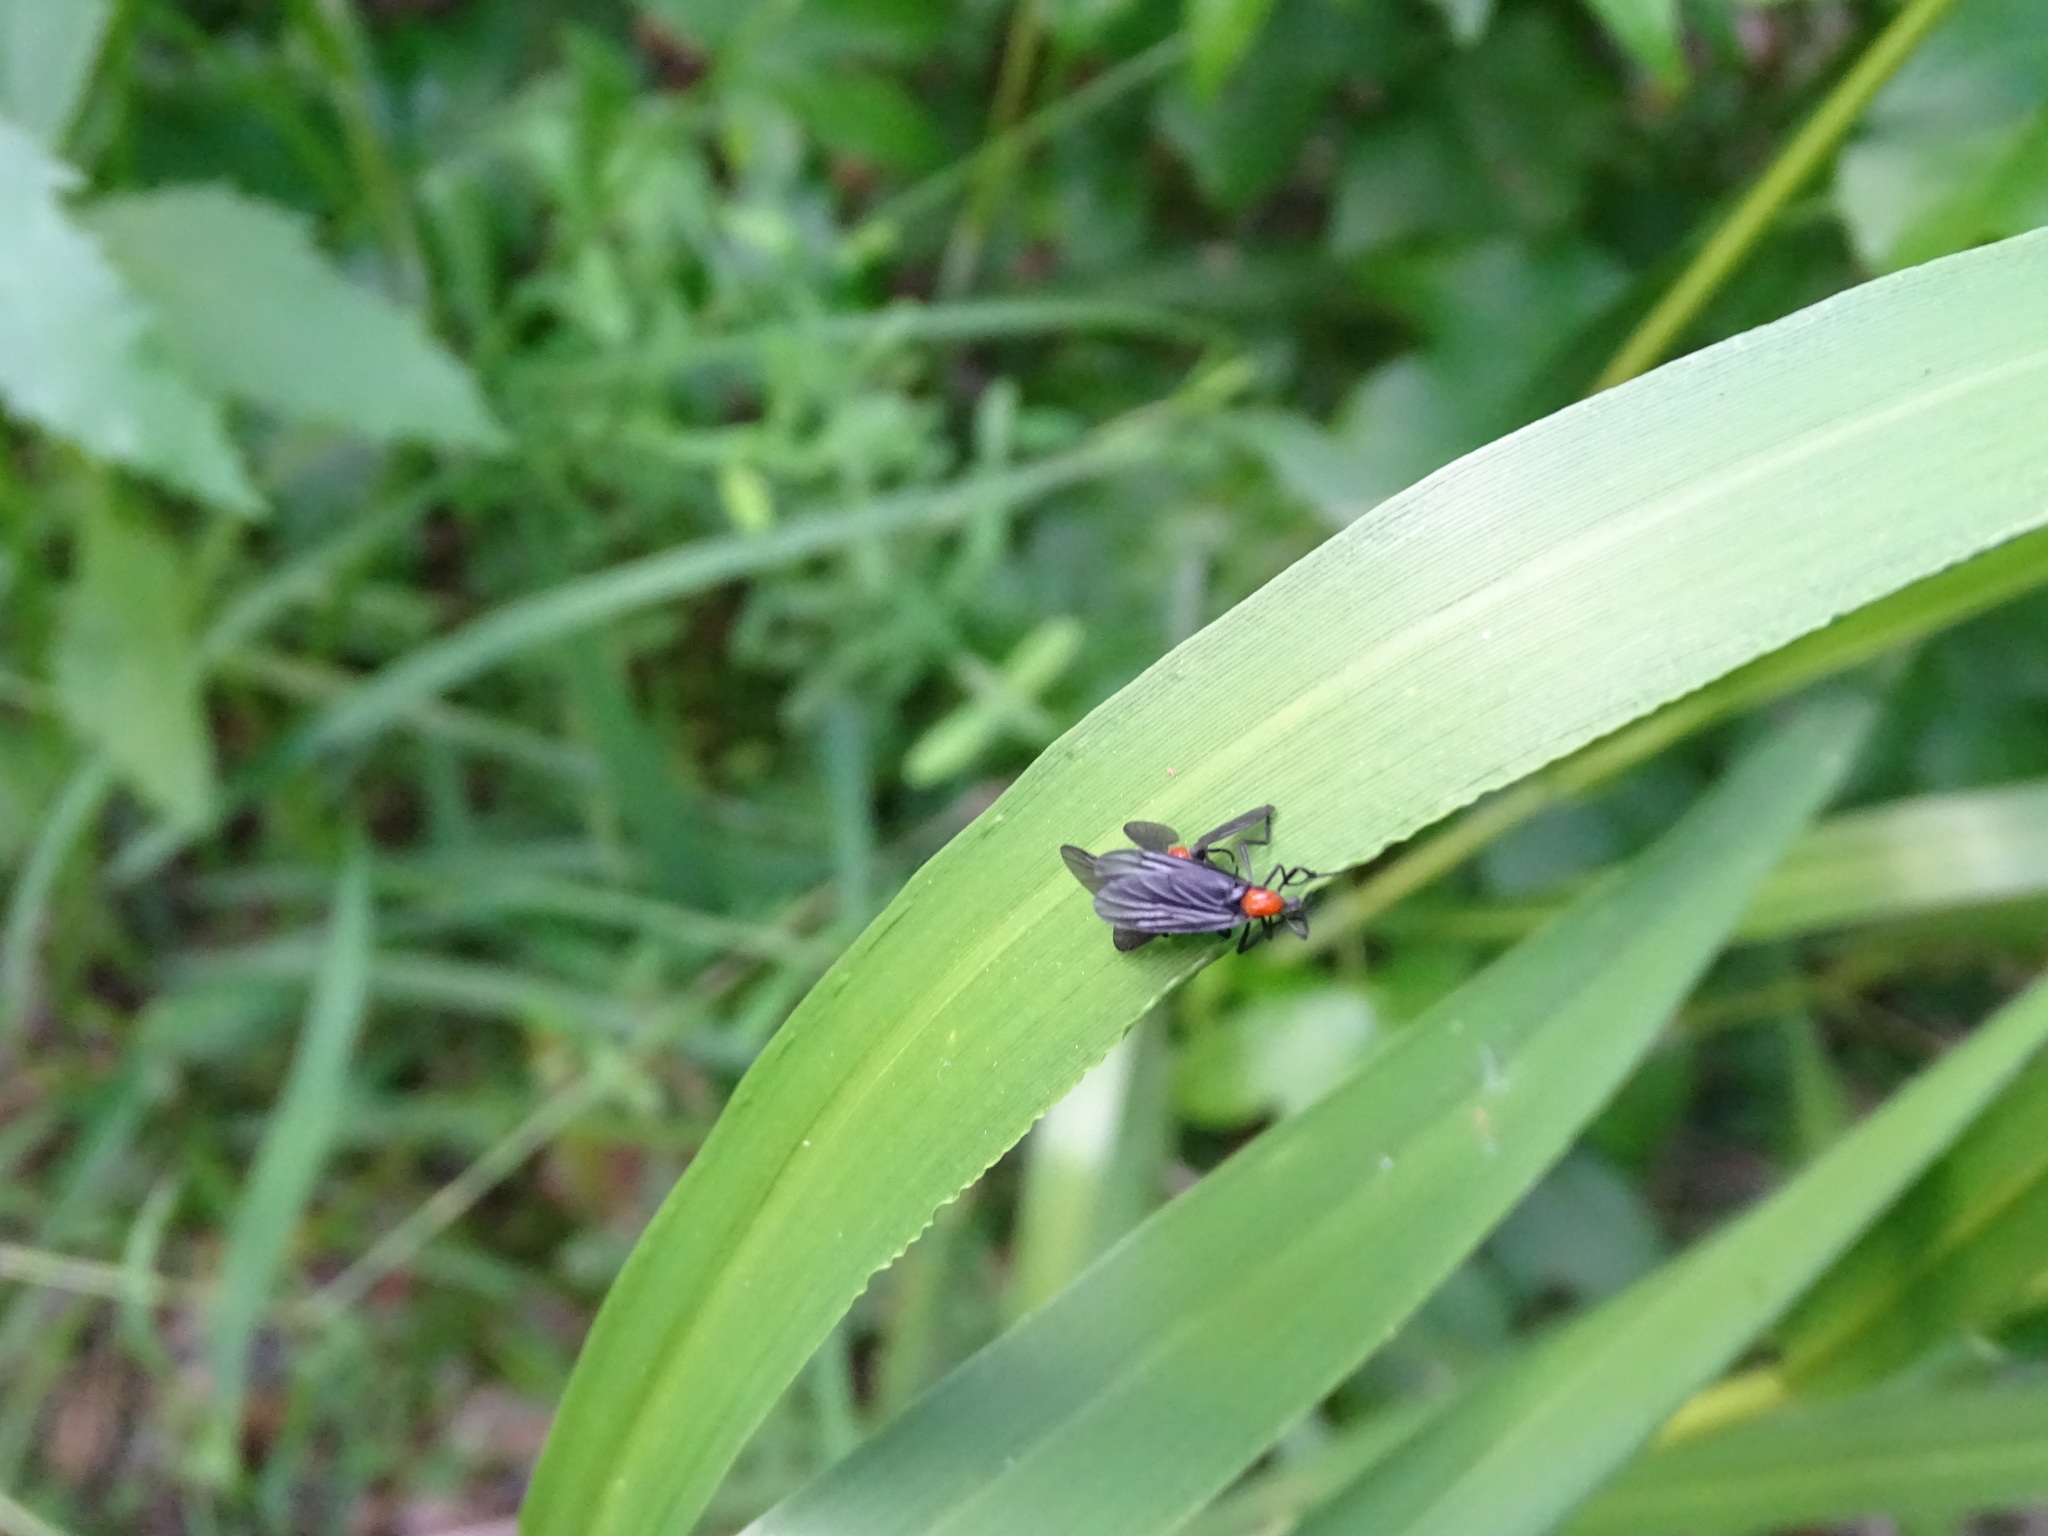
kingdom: Animalia
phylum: Arthropoda
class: Insecta
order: Diptera
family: Bibionidae
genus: Plecia
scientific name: Plecia nearctica
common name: March fly
